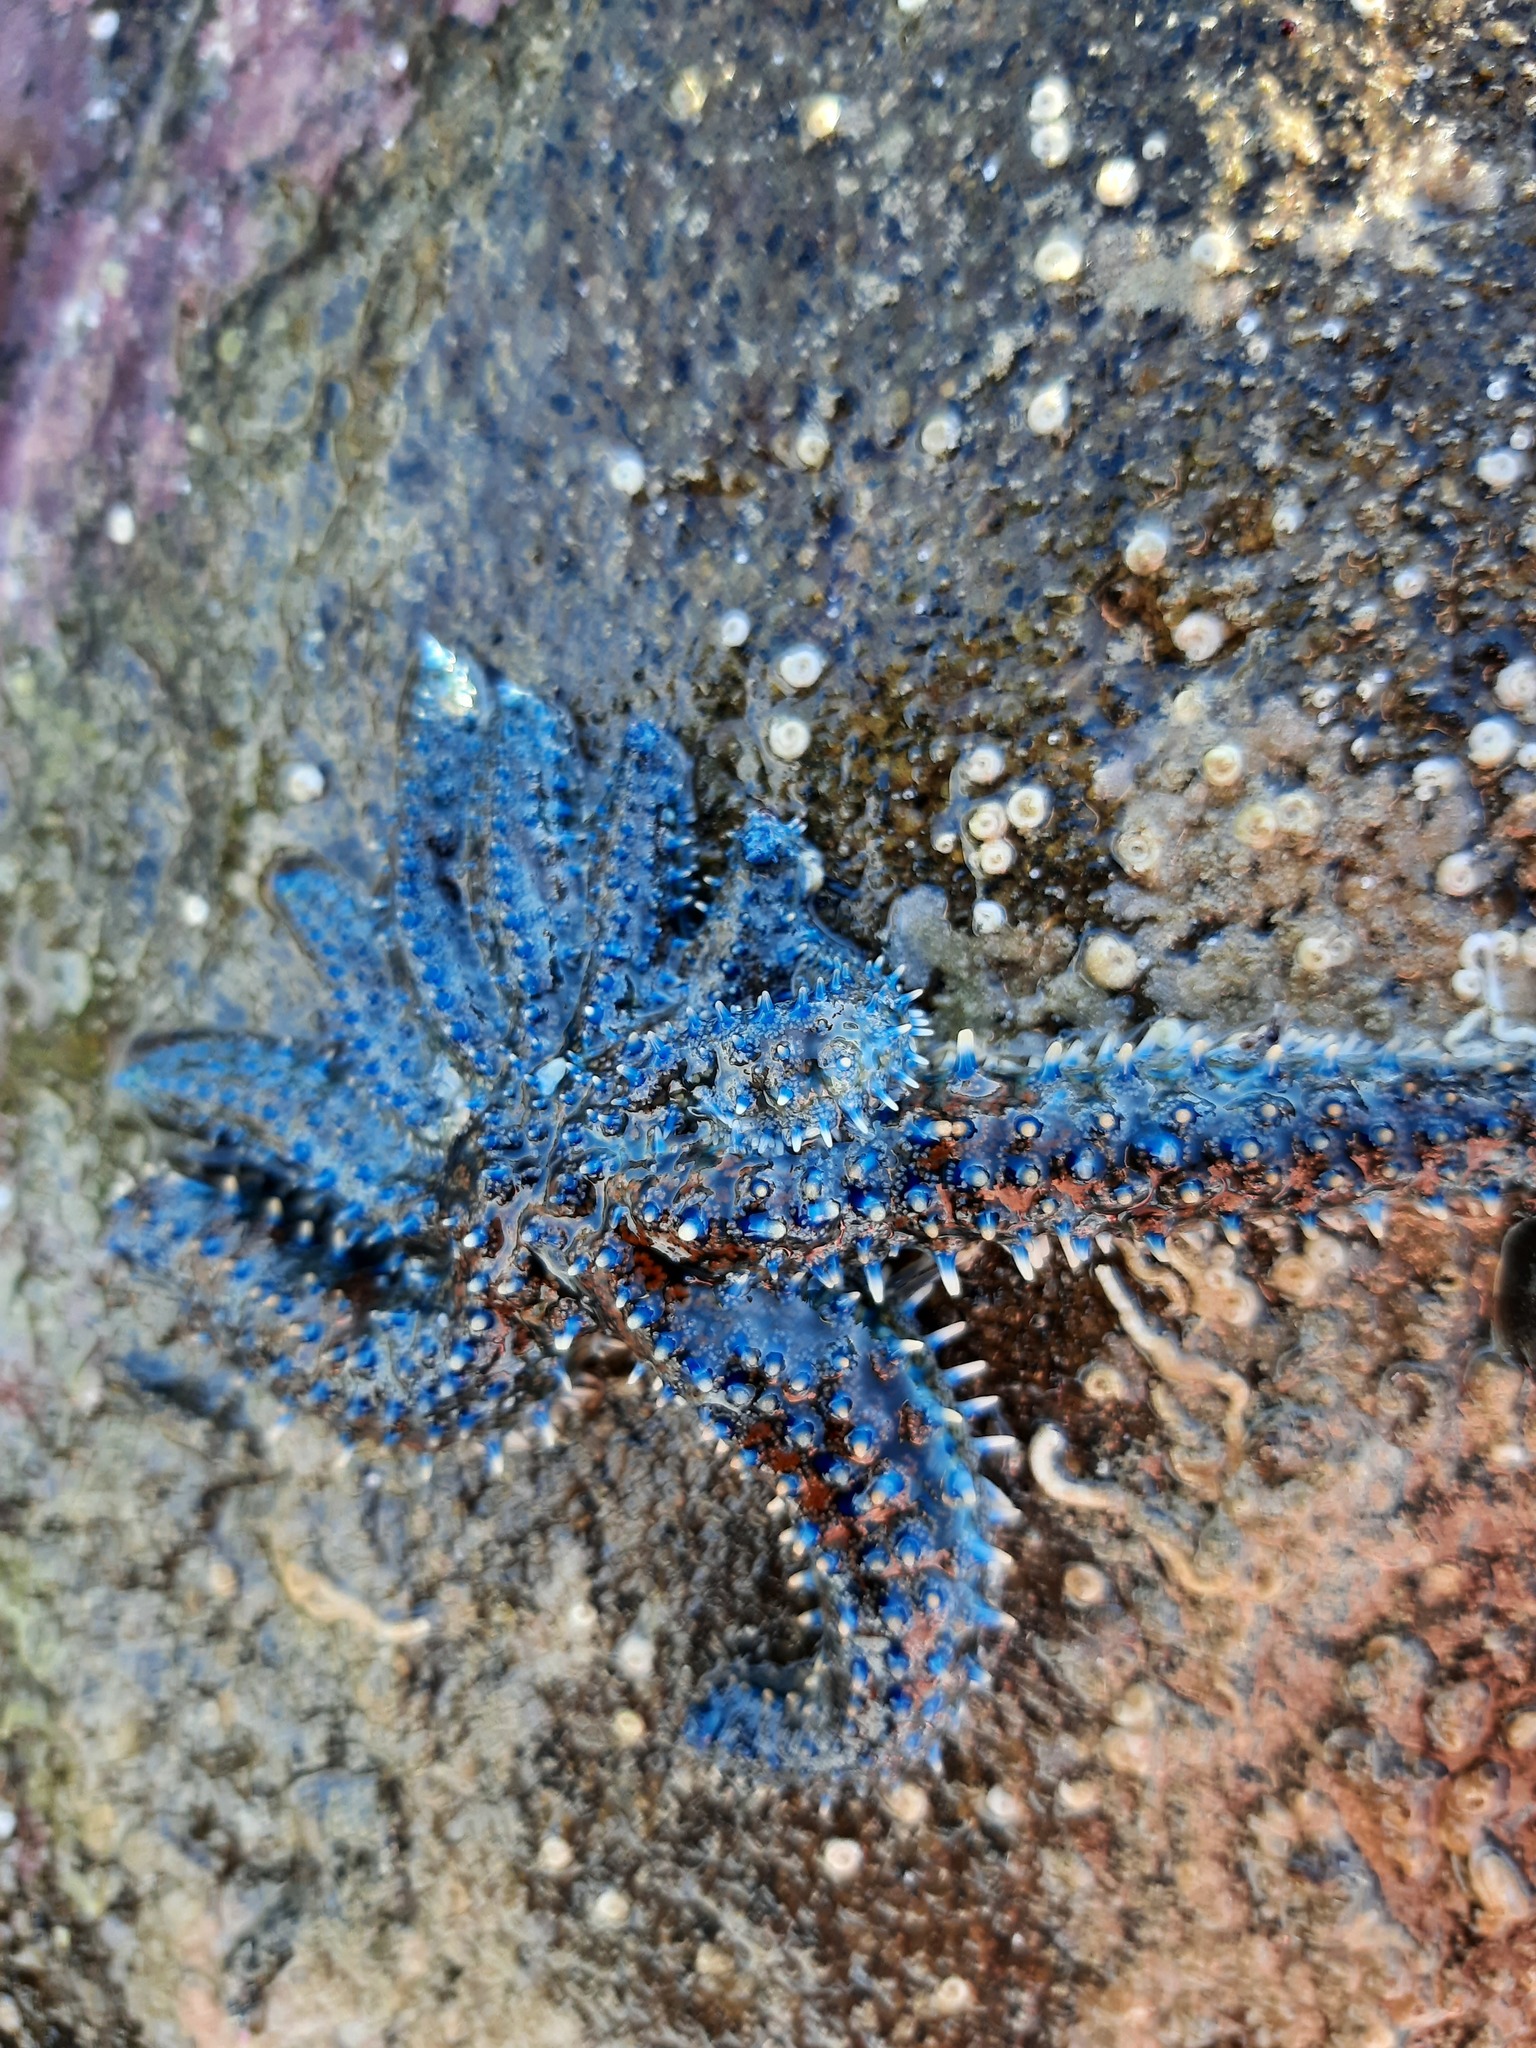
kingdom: Animalia
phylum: Echinodermata
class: Asteroidea
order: Forcipulatida
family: Asteriidae
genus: Coscinasterias
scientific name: Coscinasterias muricata
